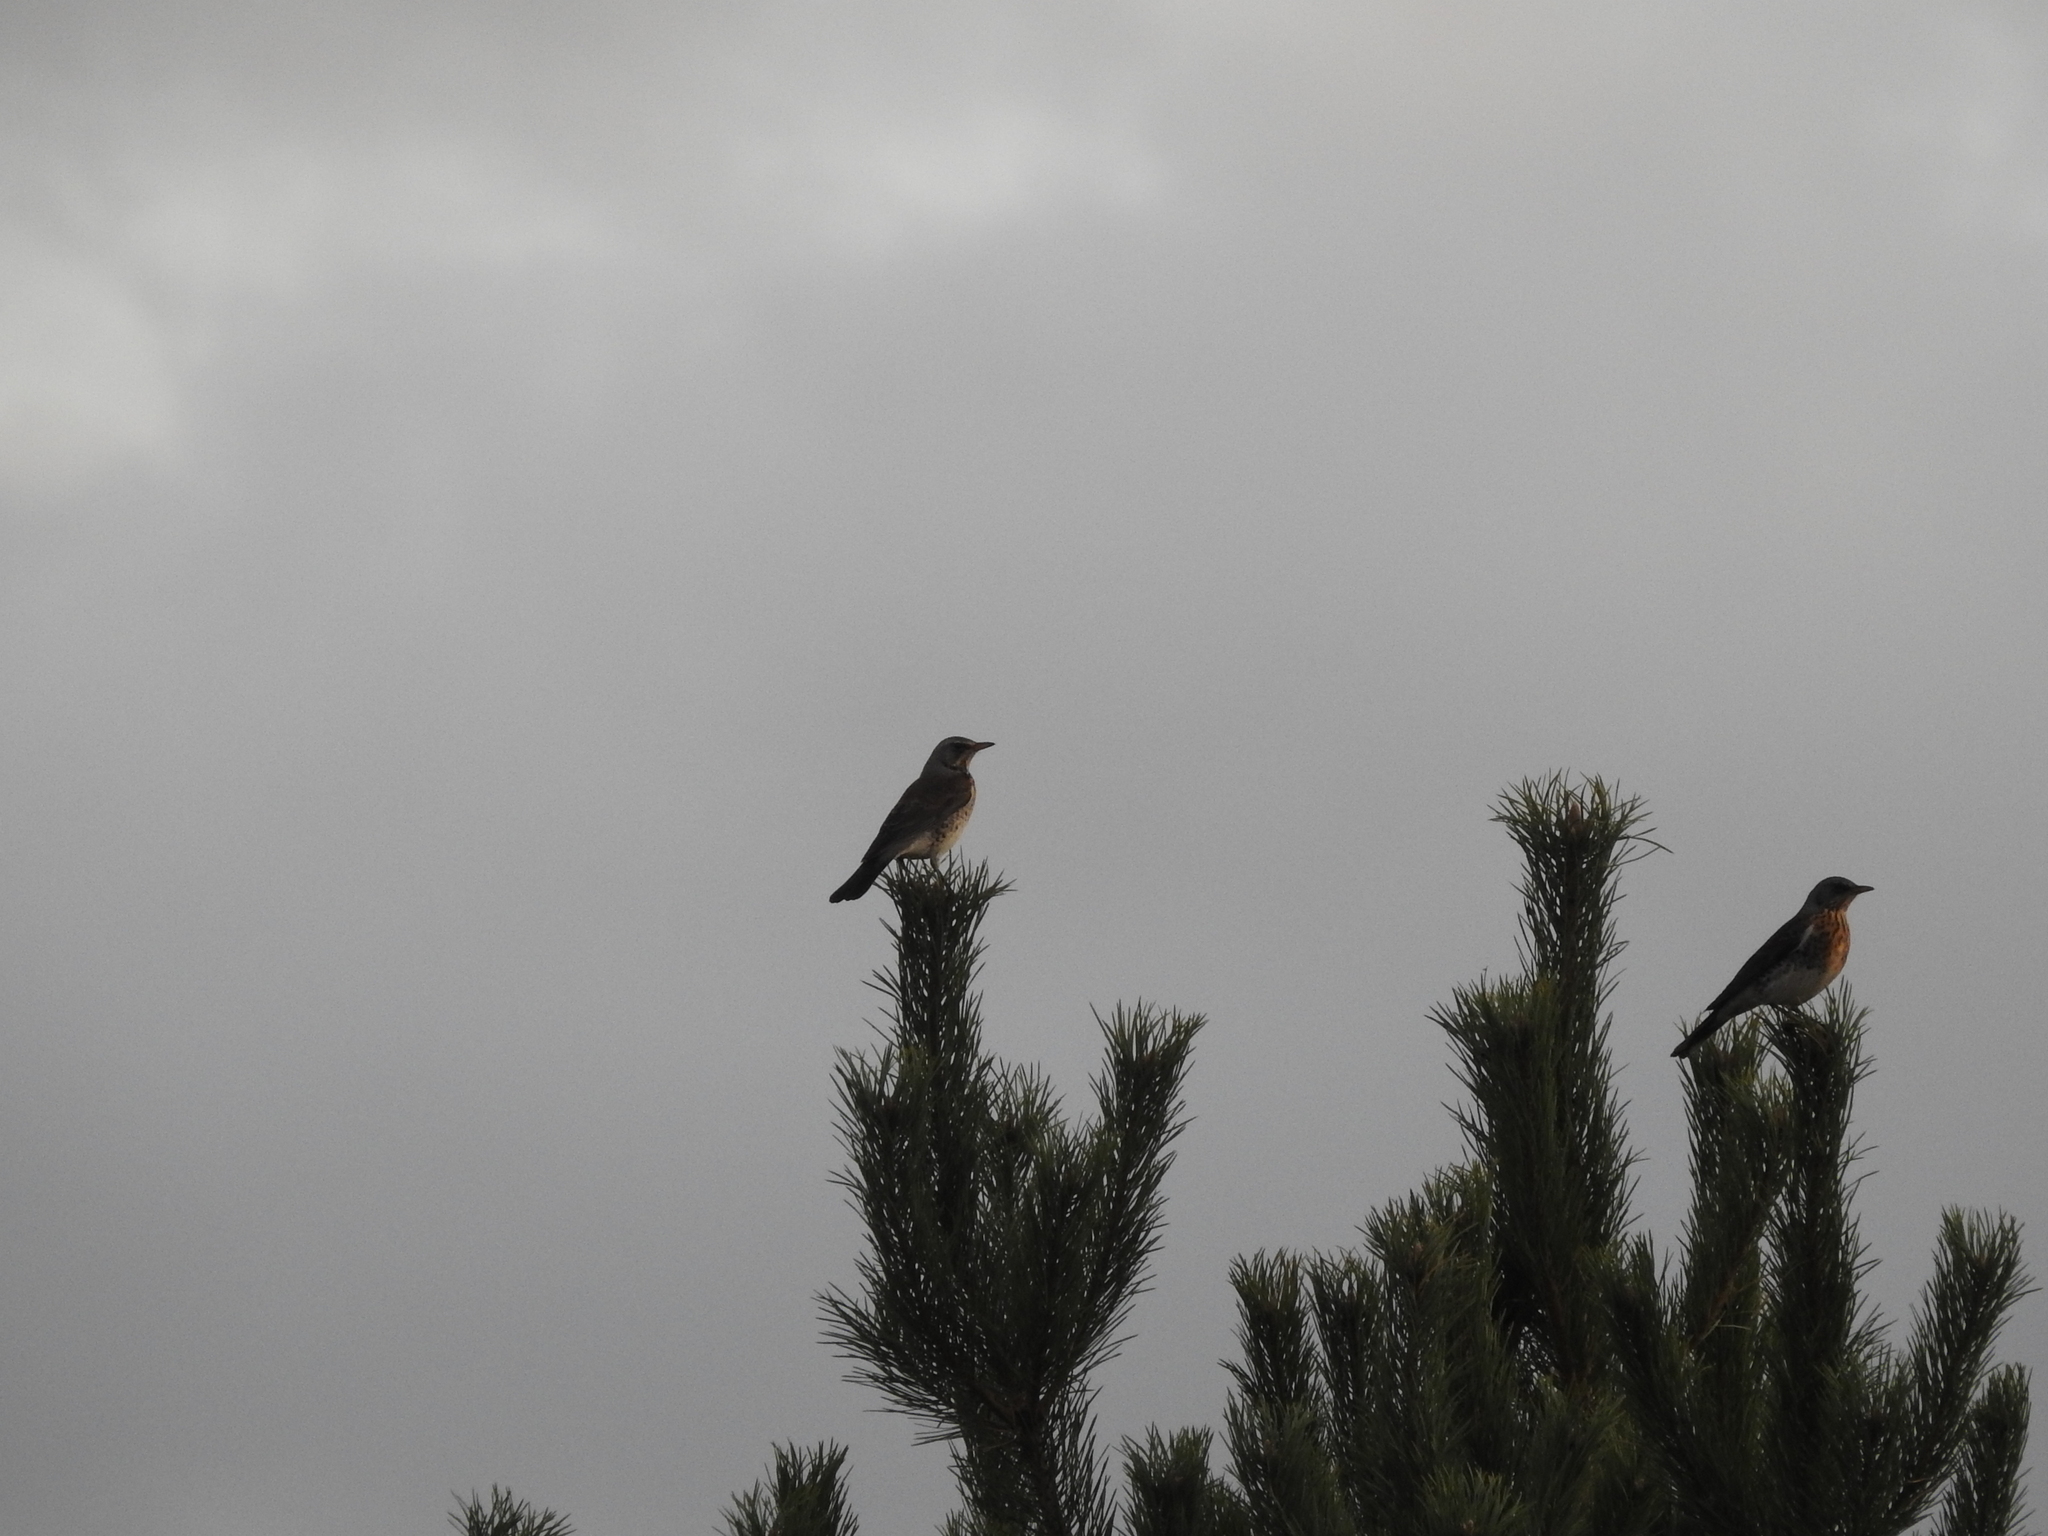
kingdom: Animalia
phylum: Chordata
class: Aves
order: Passeriformes
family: Turdidae
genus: Turdus
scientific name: Turdus pilaris
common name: Fieldfare
